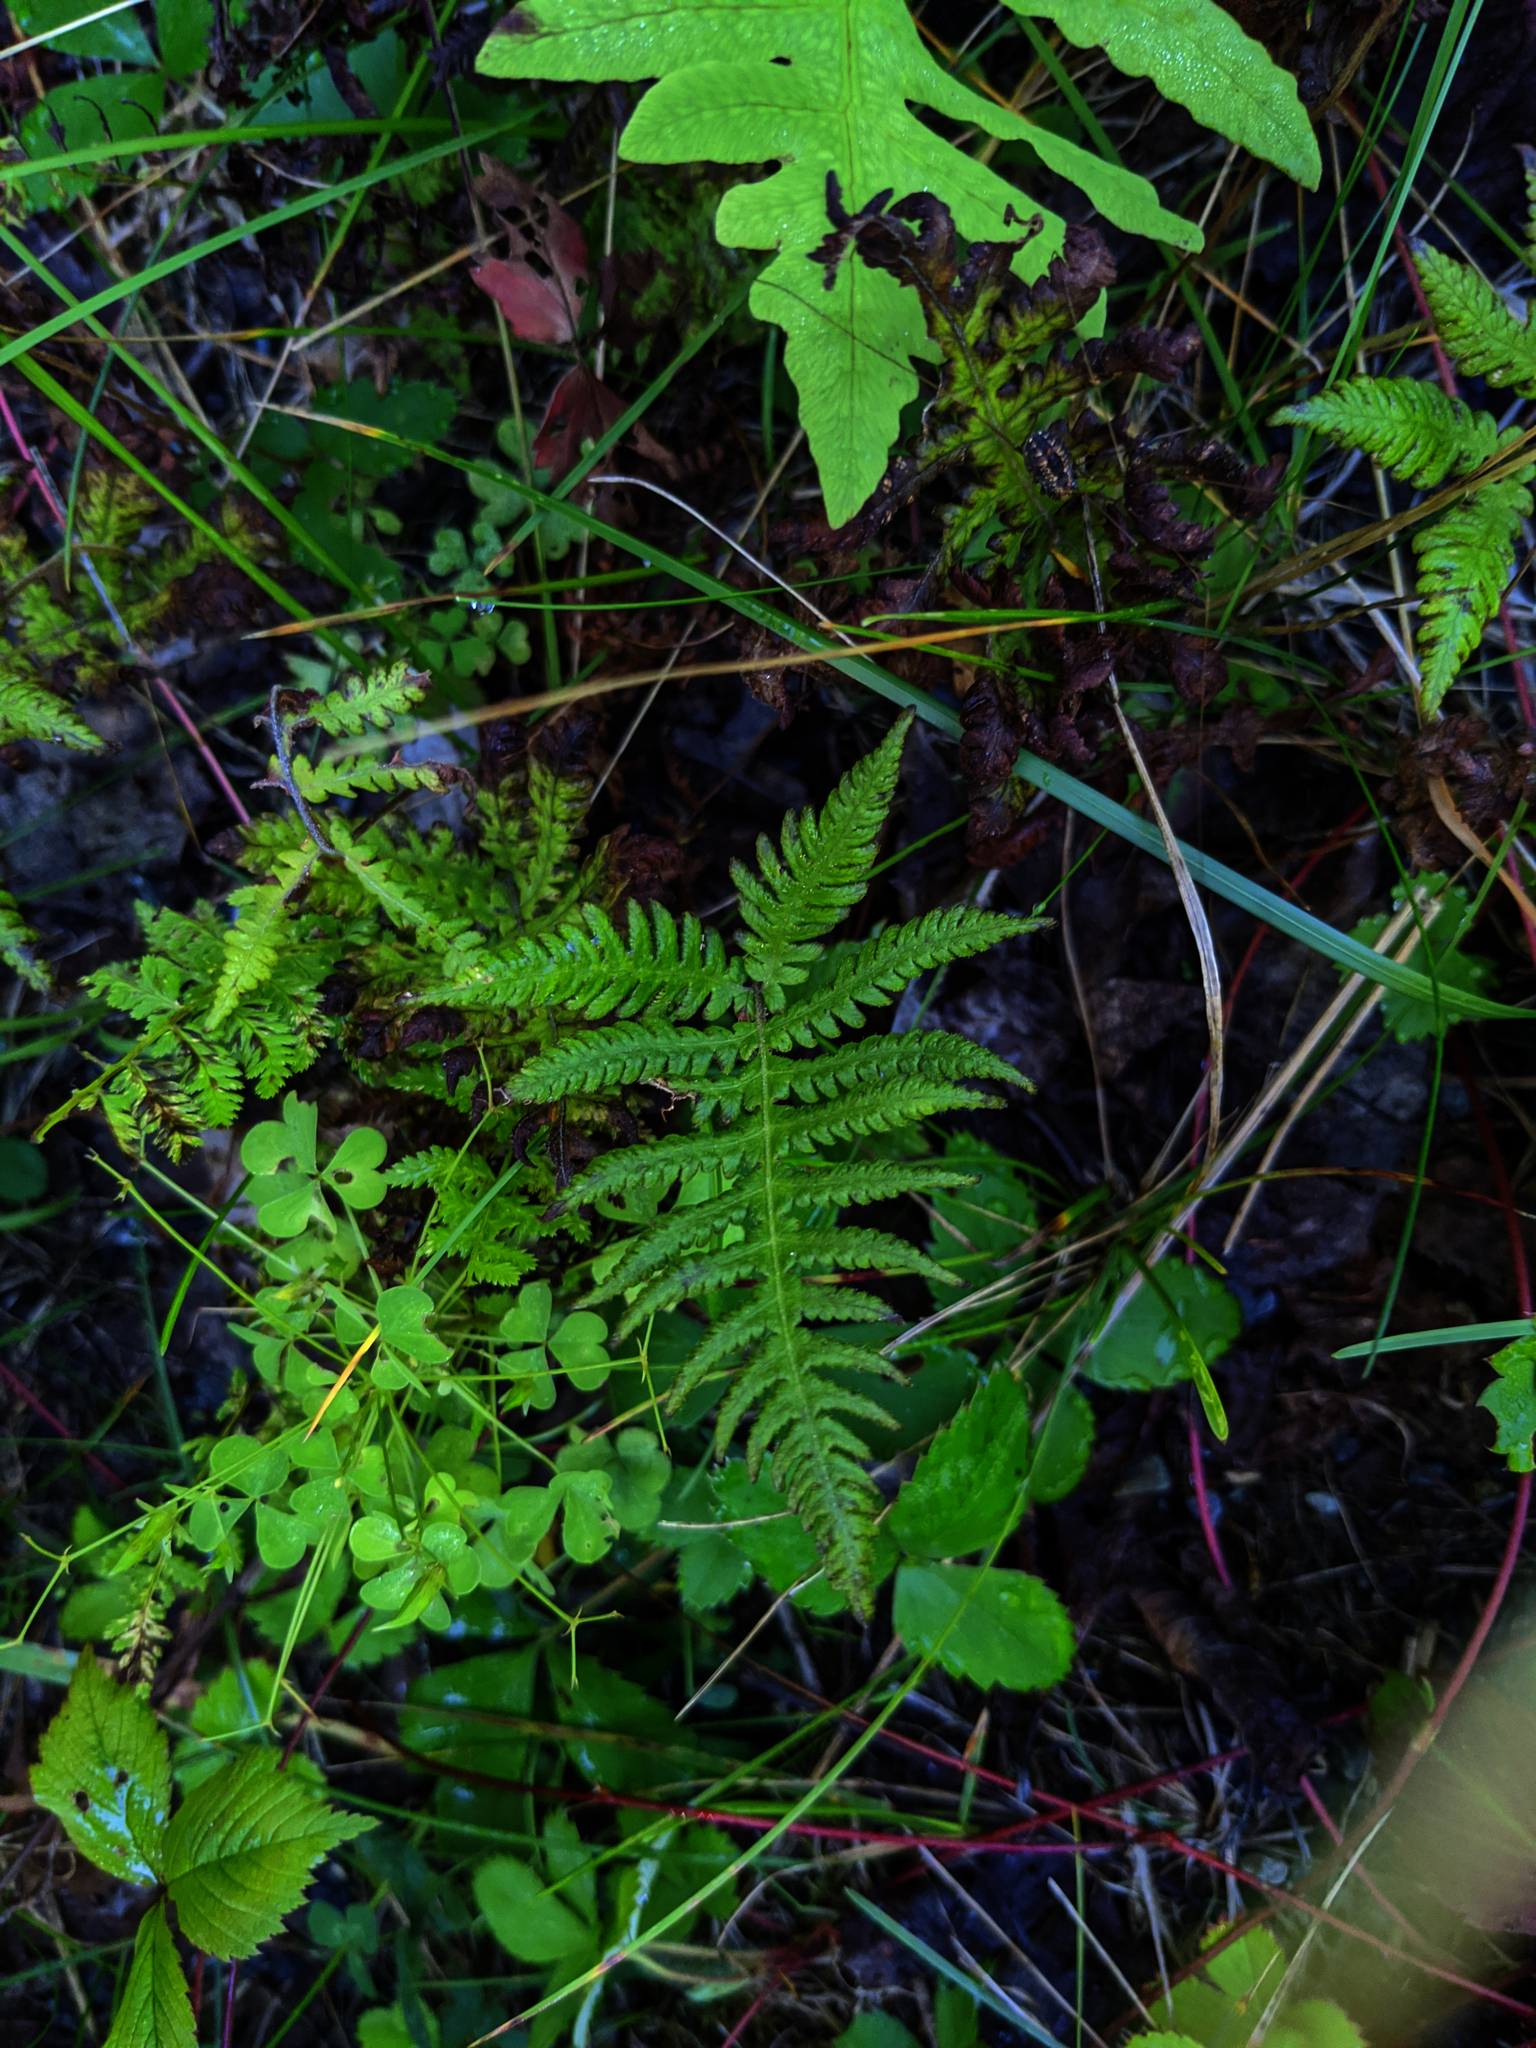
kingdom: Plantae
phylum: Tracheophyta
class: Polypodiopsida
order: Polypodiales
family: Thelypteridaceae
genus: Phegopteris
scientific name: Phegopteris connectilis
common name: Beech fern
